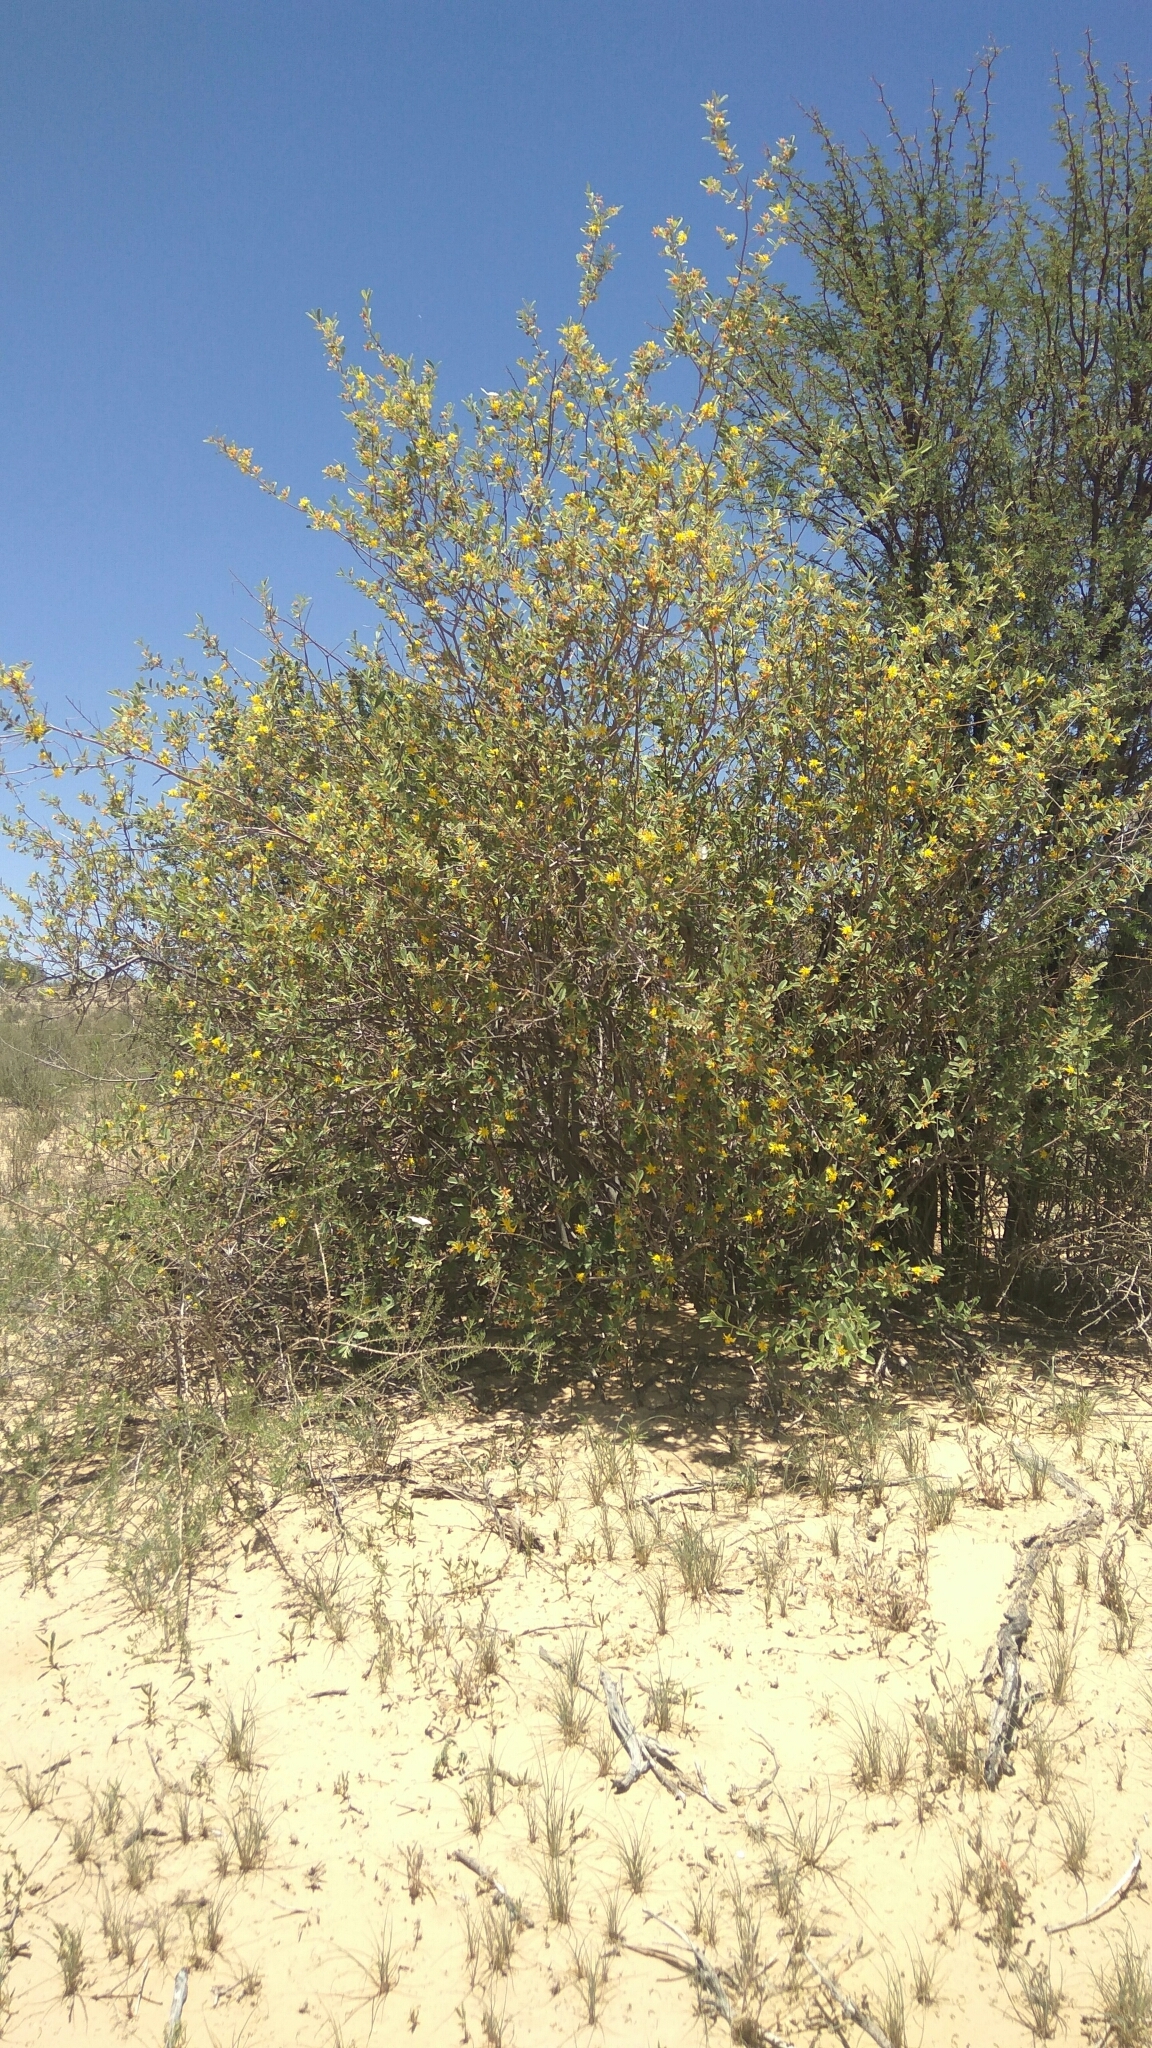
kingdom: Plantae
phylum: Tracheophyta
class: Magnoliopsida
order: Malvales
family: Malvaceae
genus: Grewia
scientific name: Grewia flava
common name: Brandy bush
